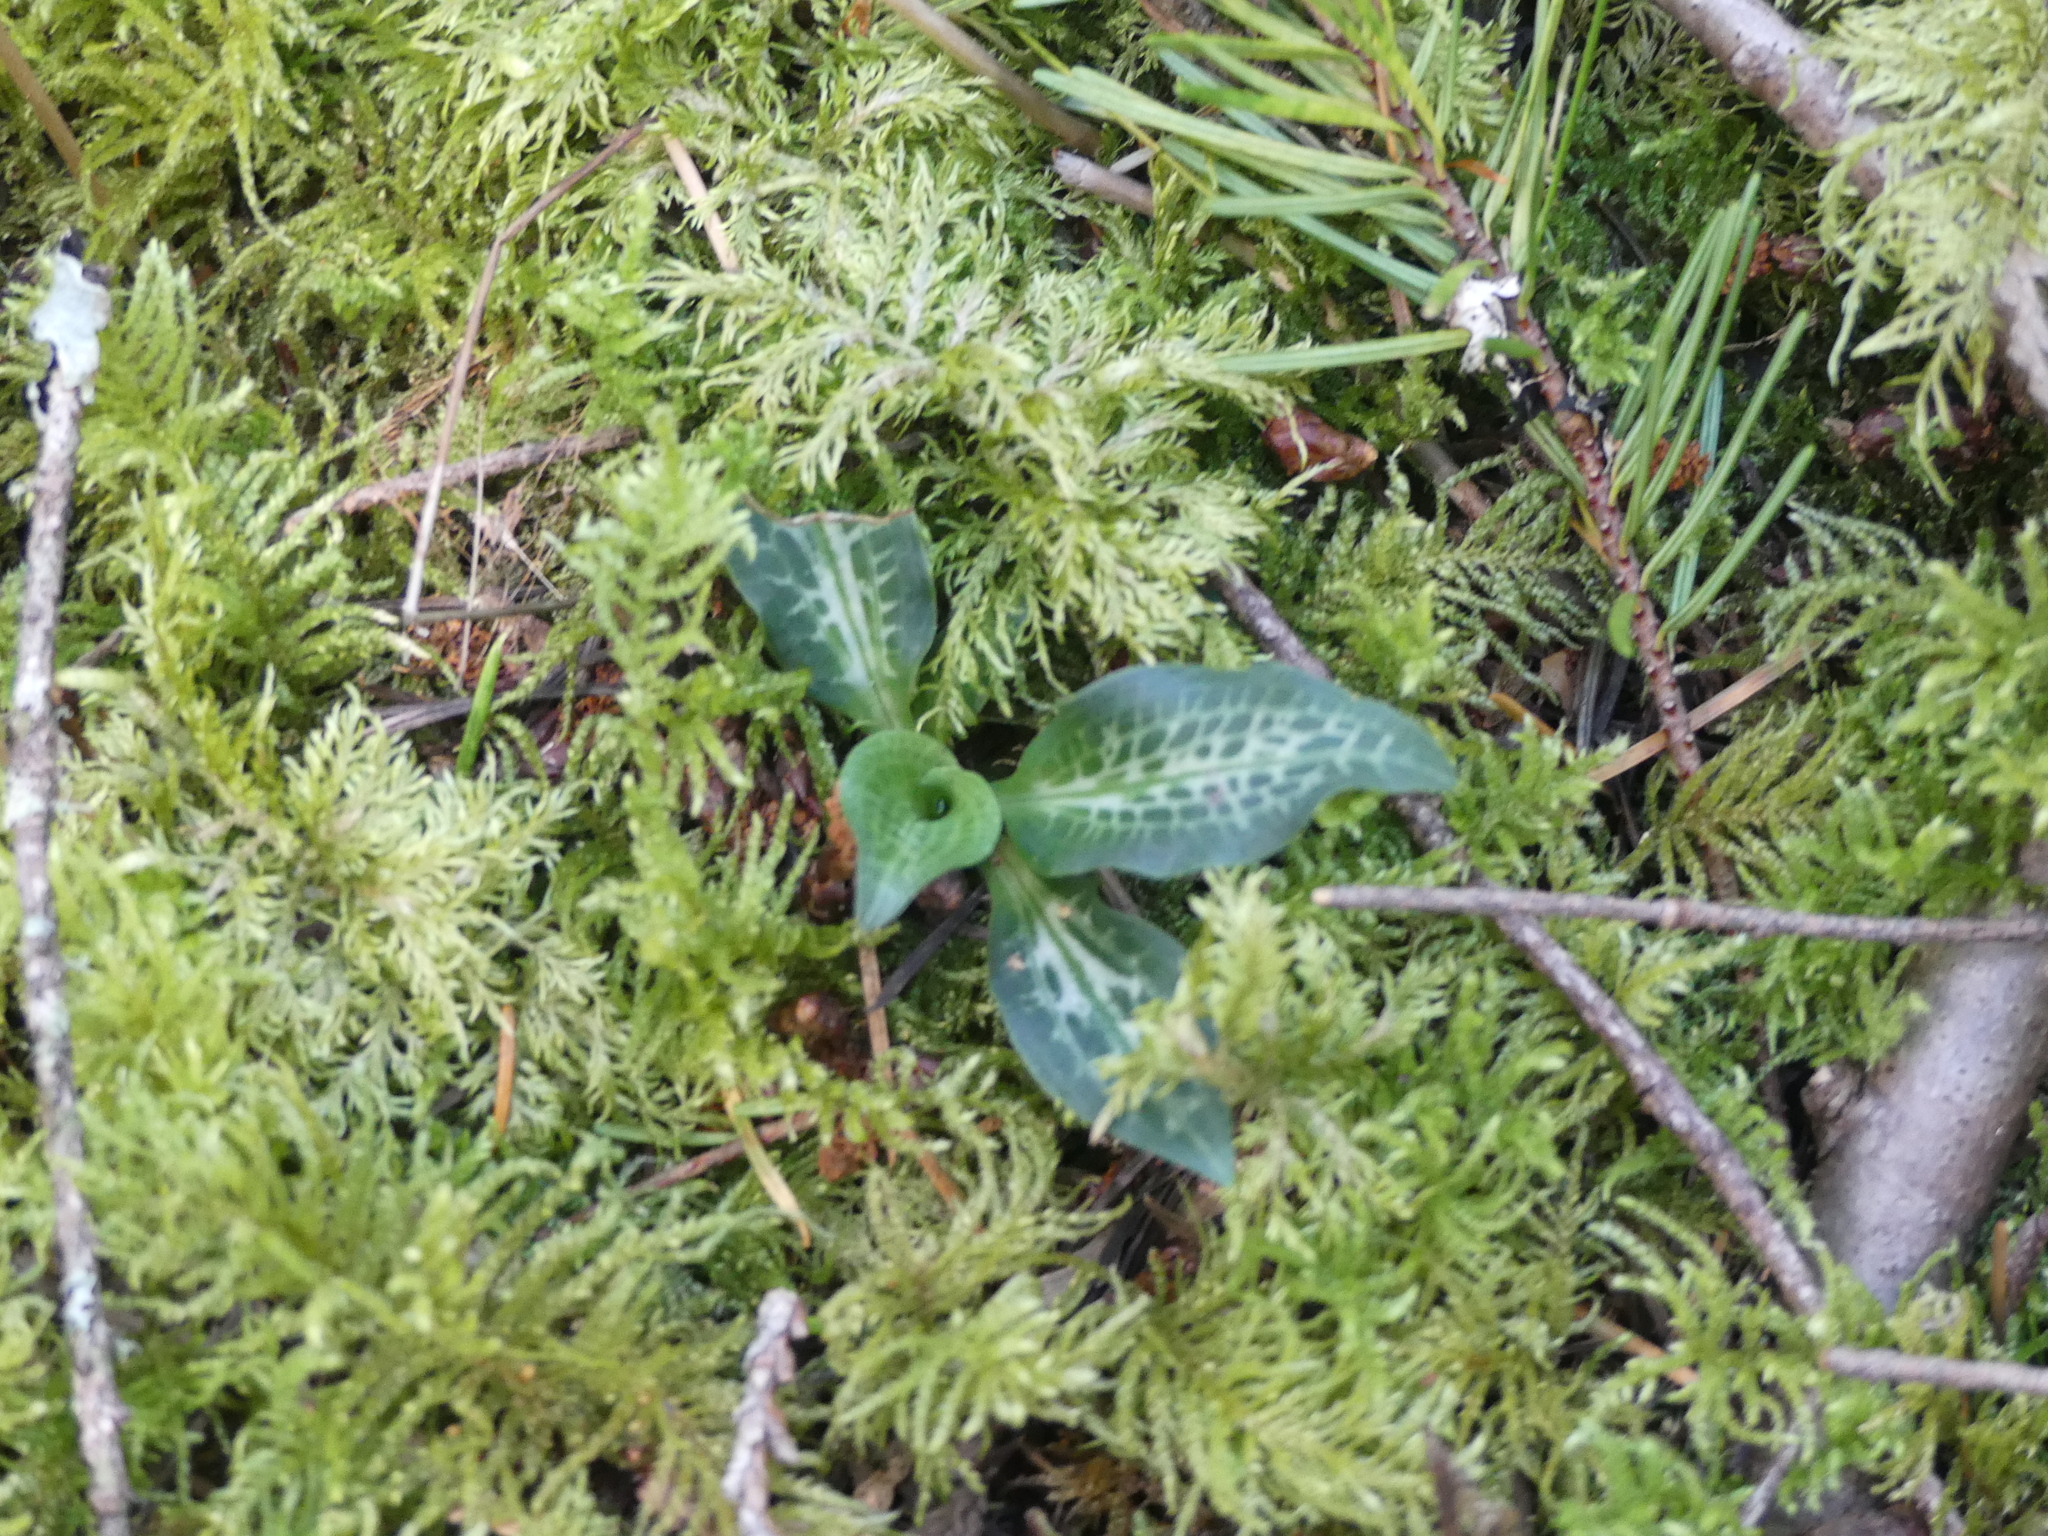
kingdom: Plantae
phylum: Tracheophyta
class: Liliopsida
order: Asparagales
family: Orchidaceae
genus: Goodyera
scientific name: Goodyera oblongifolia
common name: Giant rattlesnake-plantain
